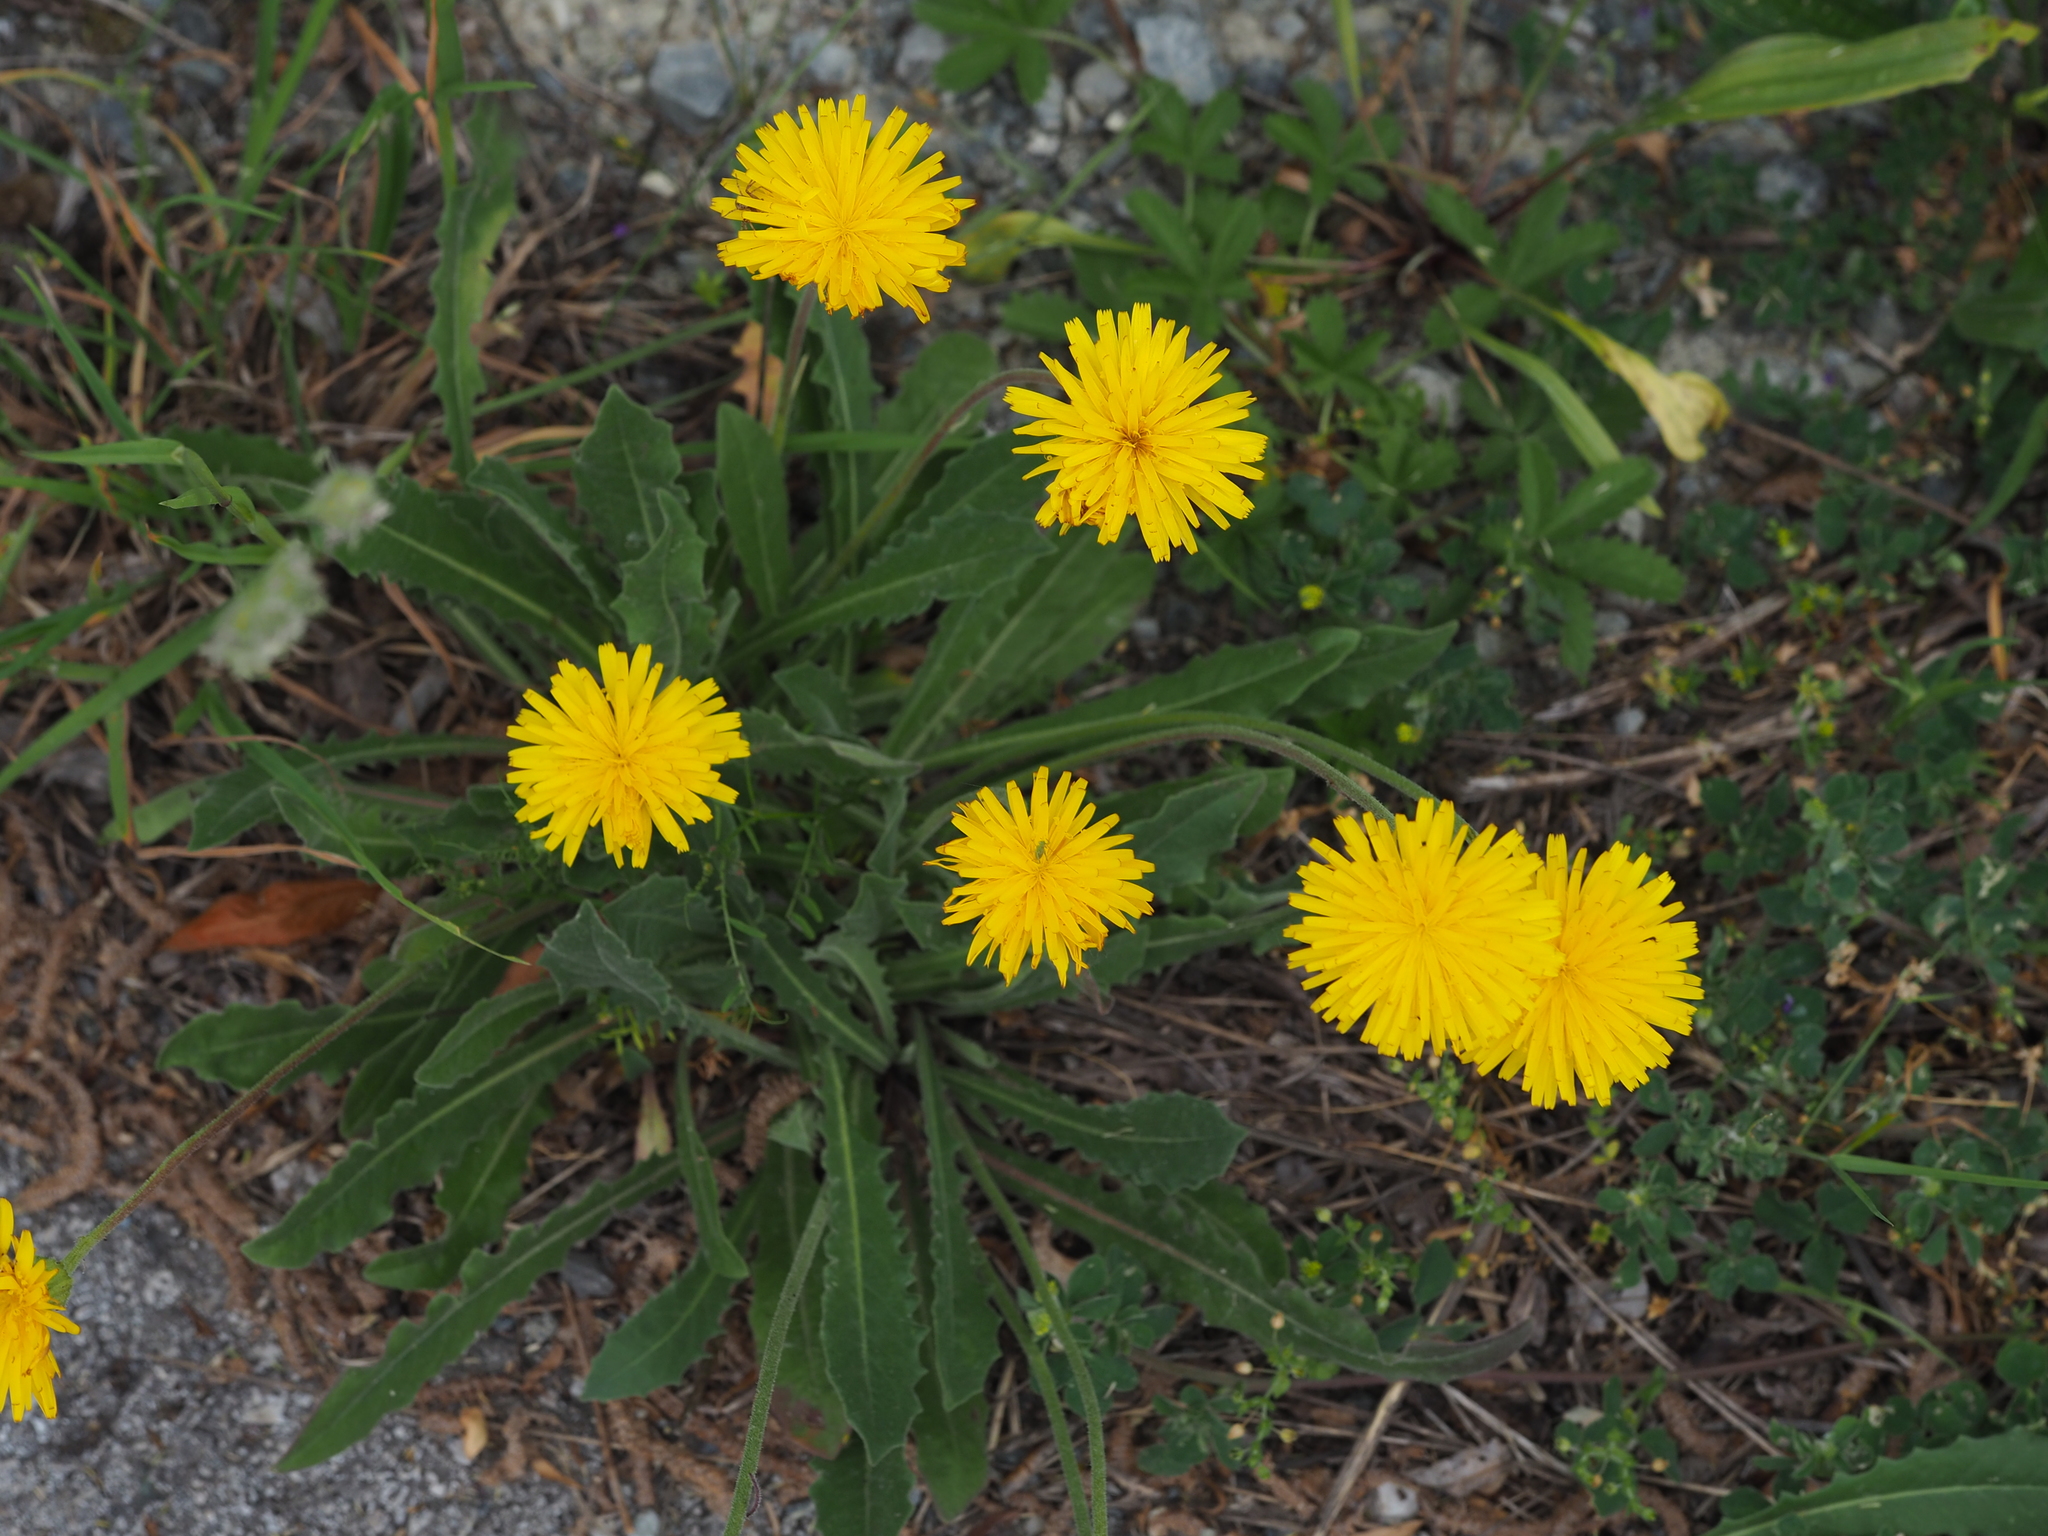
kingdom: Plantae
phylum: Tracheophyta
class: Magnoliopsida
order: Asterales
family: Asteraceae
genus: Leontodon
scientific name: Leontodon hispidus
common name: Rough hawkbit
